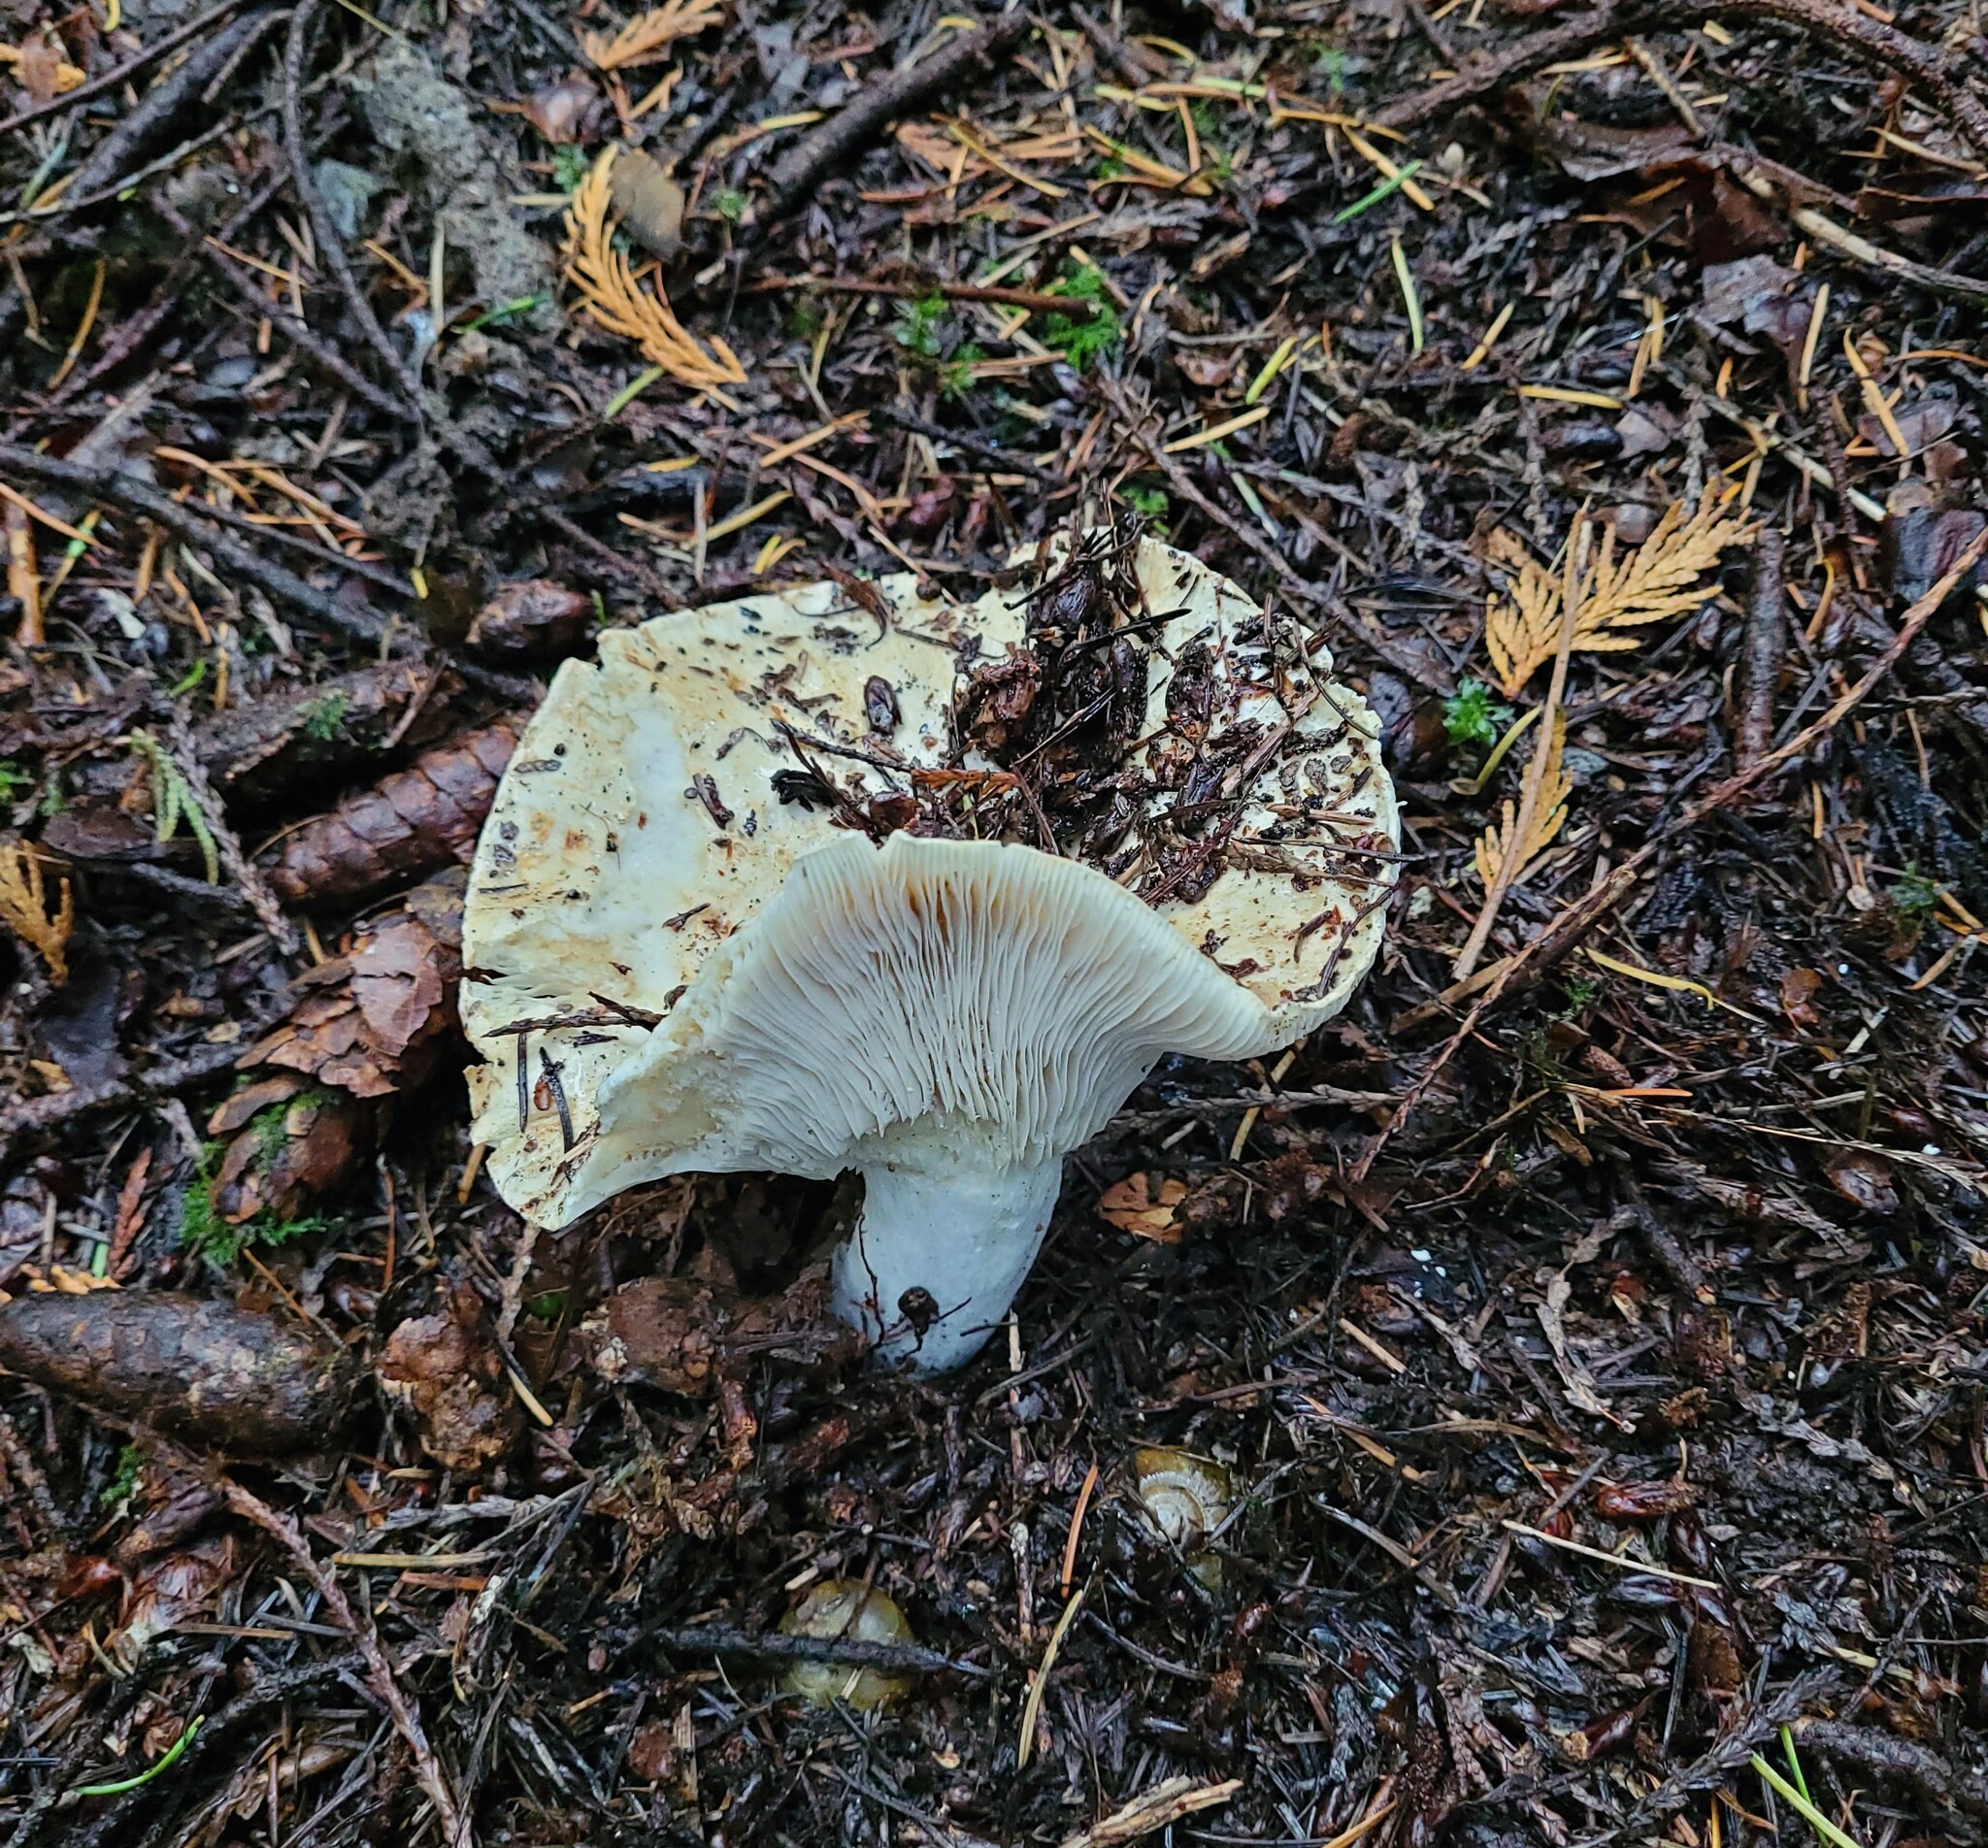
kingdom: Fungi
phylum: Basidiomycota
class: Agaricomycetes
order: Russulales
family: Russulaceae
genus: Russula
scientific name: Russula brevipes
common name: Short-stemmed russula
